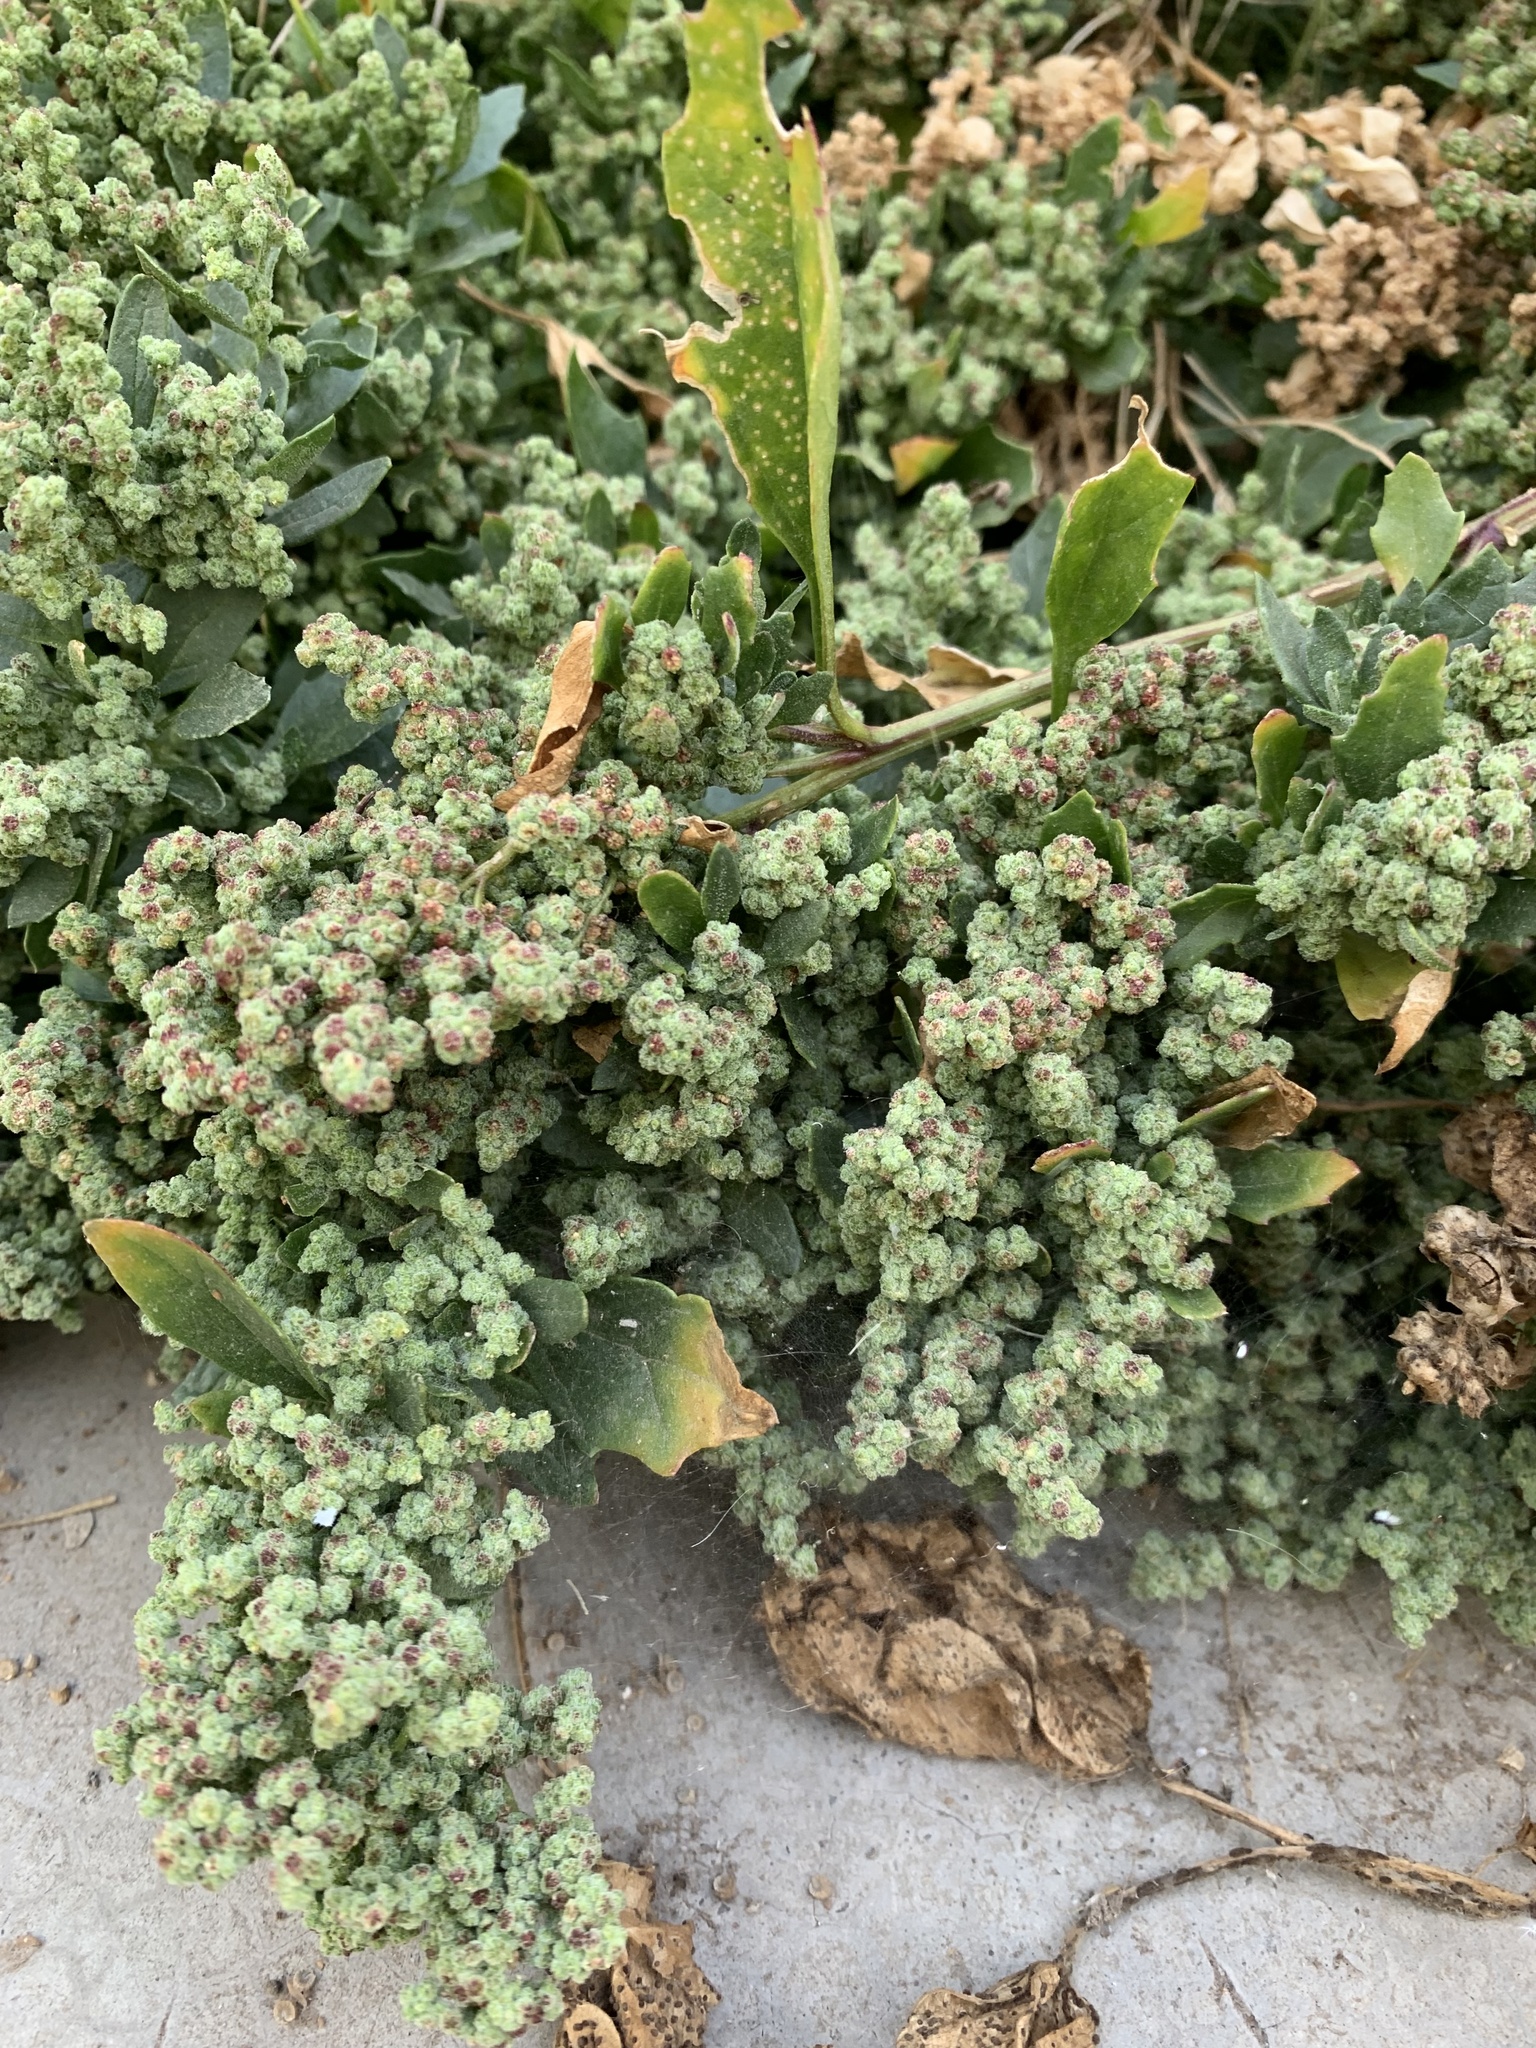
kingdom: Plantae
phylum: Tracheophyta
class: Magnoliopsida
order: Caryophyllales
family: Amaranthaceae
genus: Chenopodiastrum
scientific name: Chenopodiastrum murale
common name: Sowbane
